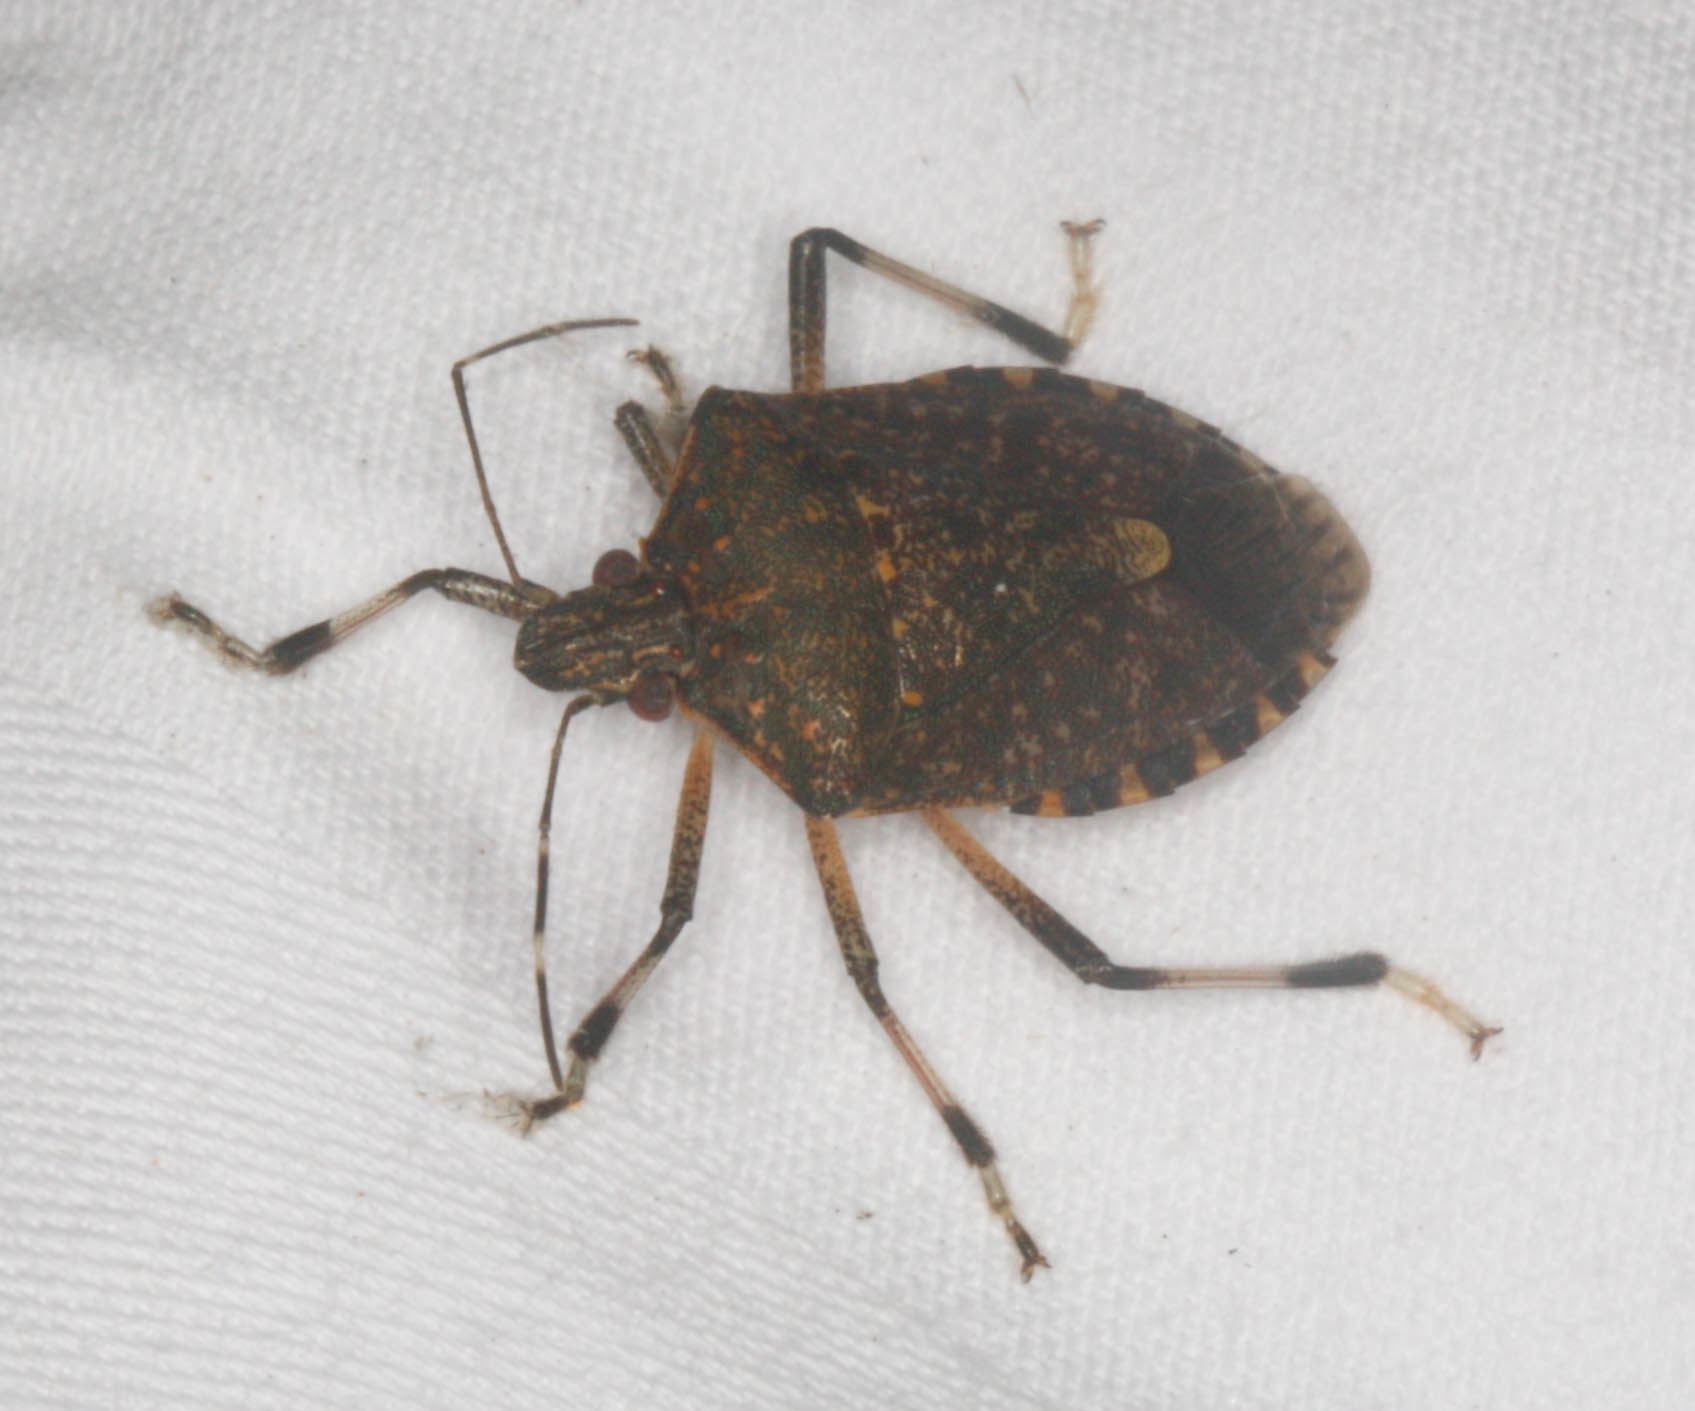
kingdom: Animalia
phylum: Arthropoda
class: Insecta
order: Hemiptera
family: Pentatomidae
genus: Halyomorpha
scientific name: Halyomorpha halys
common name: Brown marmorated stink bug
